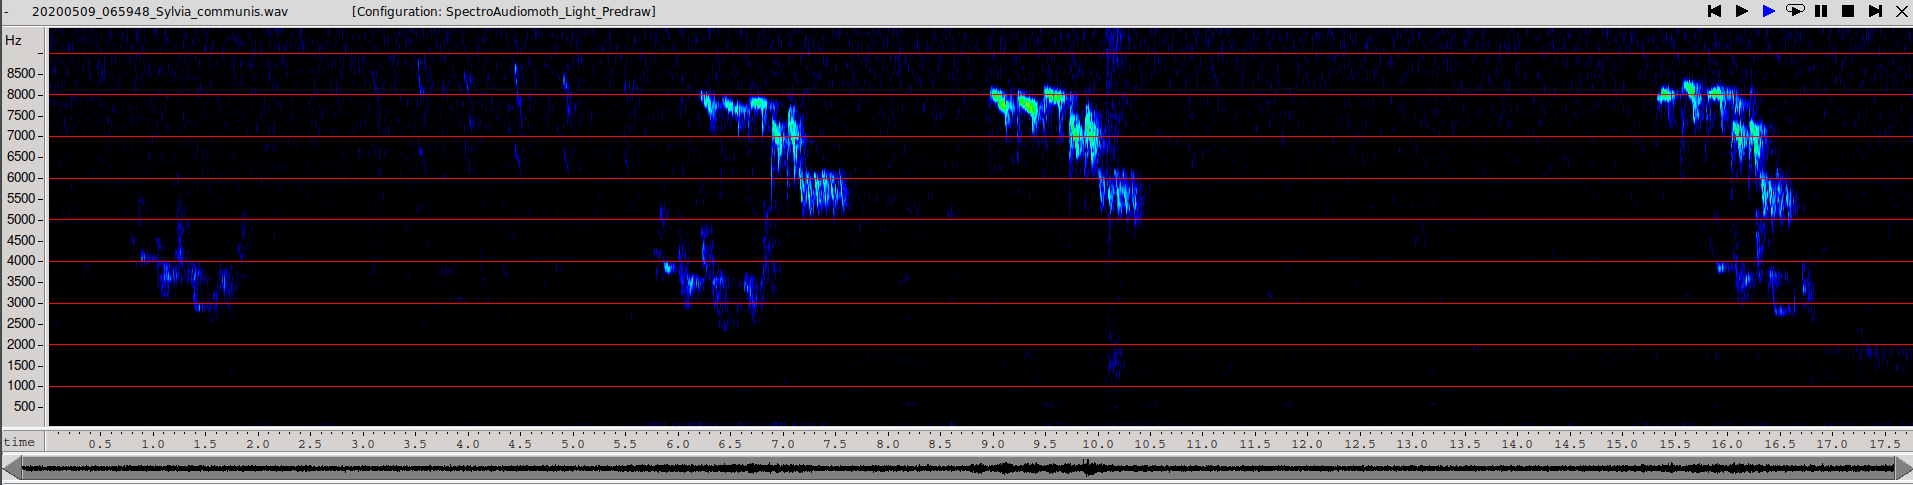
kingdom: Animalia
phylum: Chordata
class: Aves
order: Passeriformes
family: Sylviidae
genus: Sylvia
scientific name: Sylvia communis
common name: Common whitethroat
